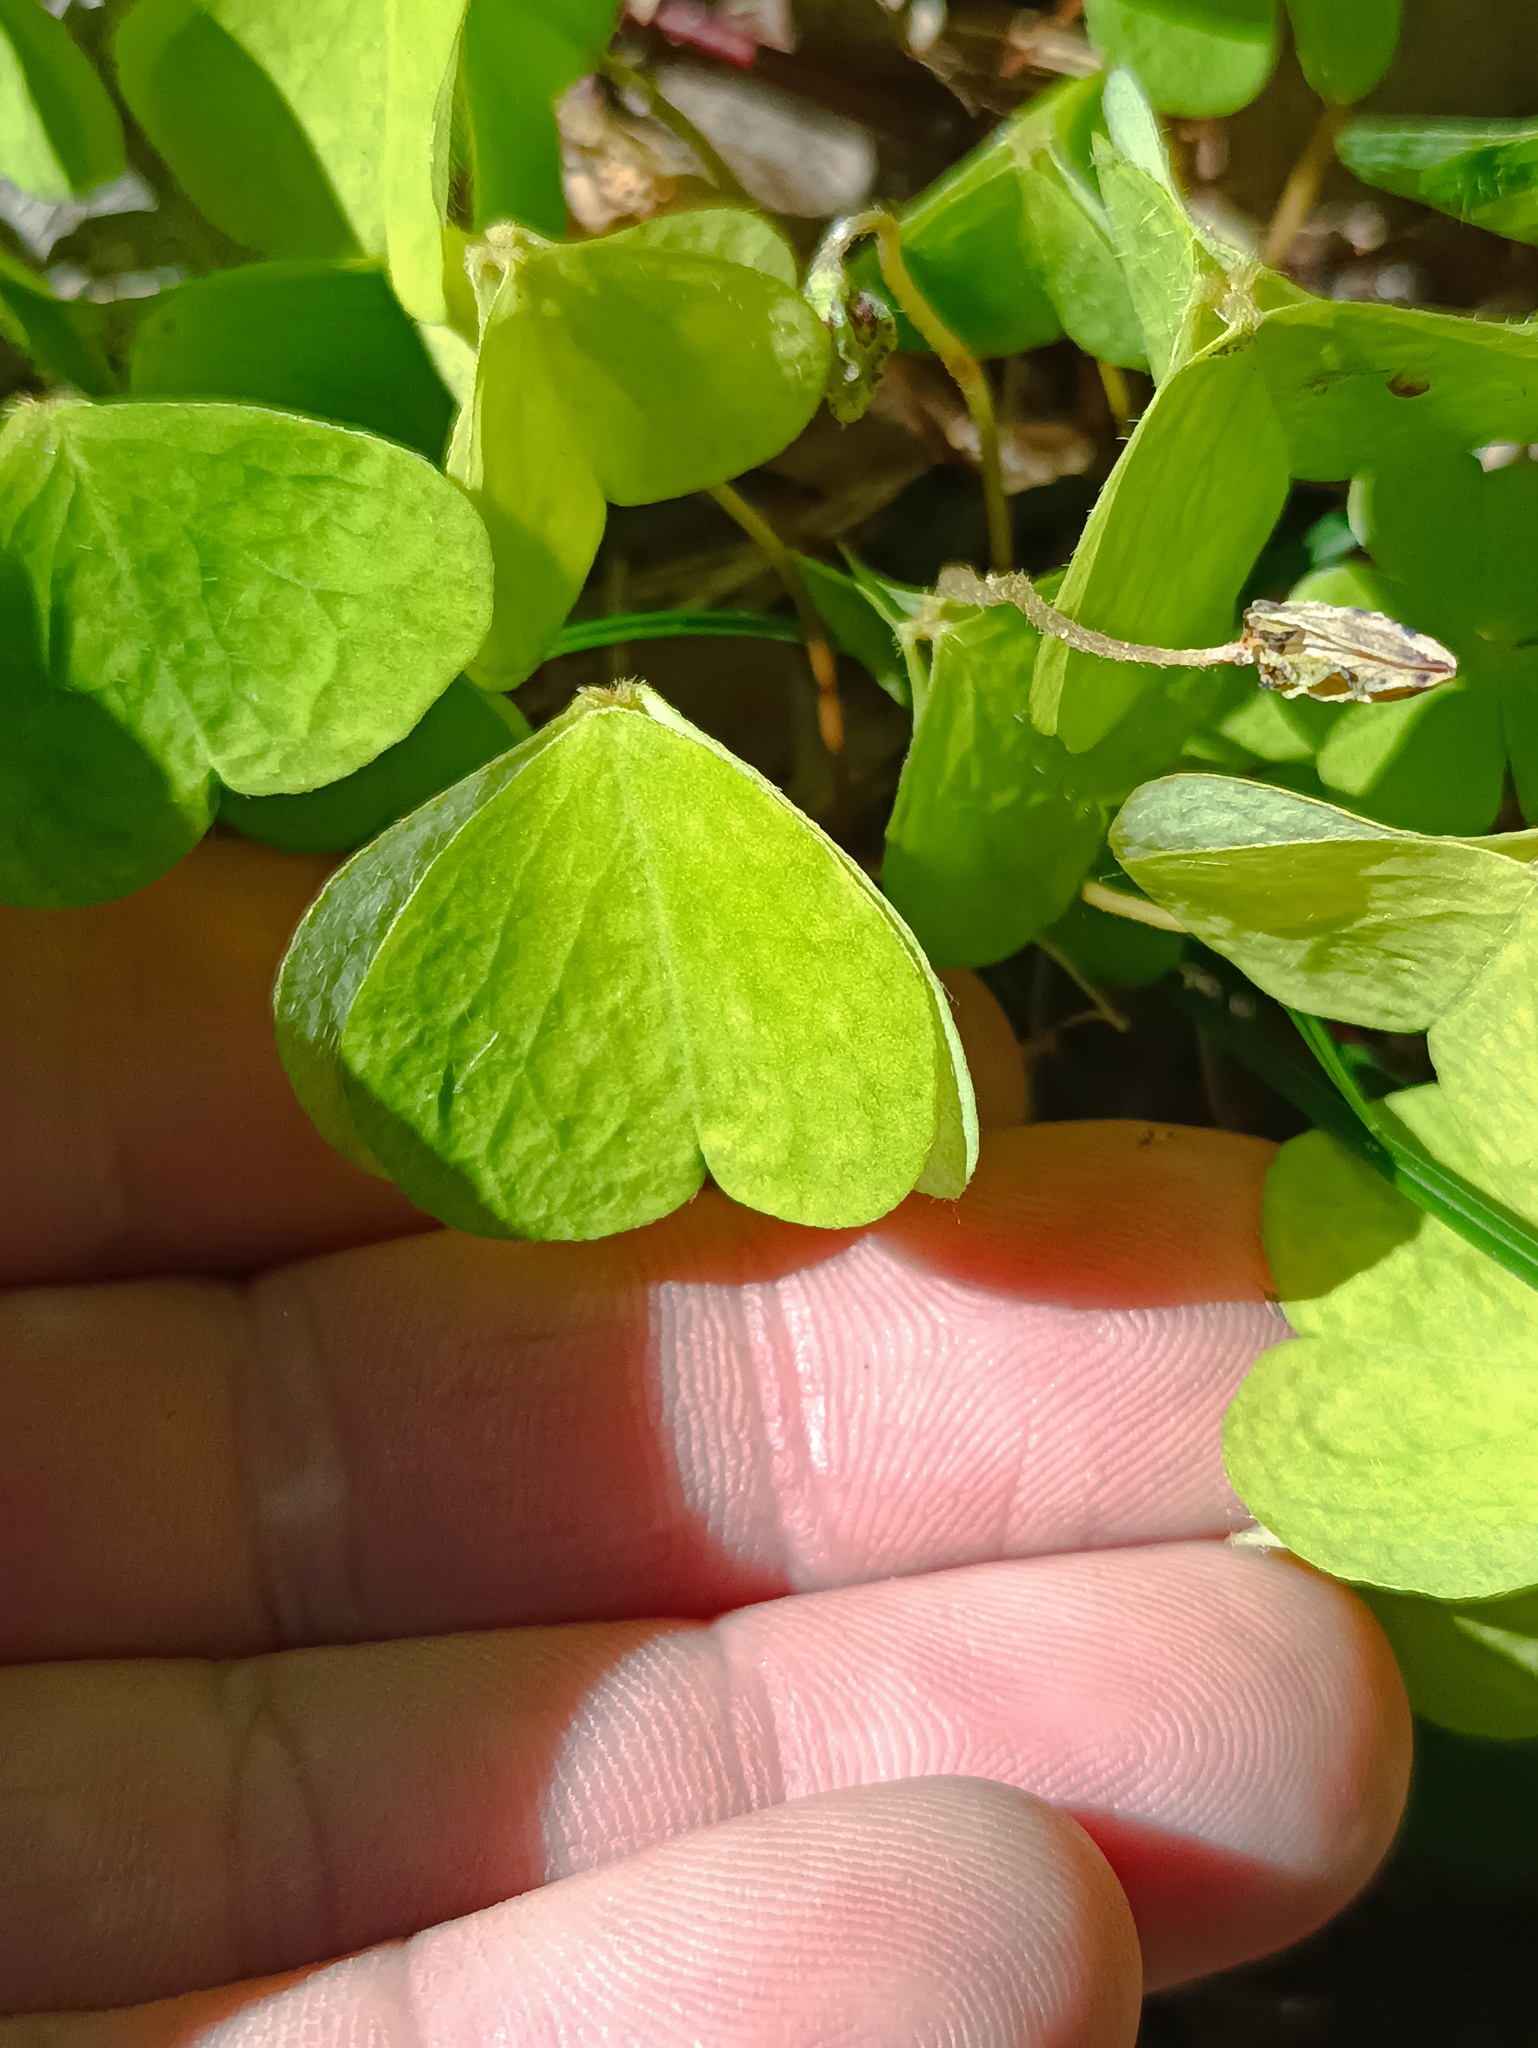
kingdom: Plantae
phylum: Tracheophyta
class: Magnoliopsida
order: Oxalidales
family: Oxalidaceae
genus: Oxalis
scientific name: Oxalis acetosella
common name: Wood-sorrel
